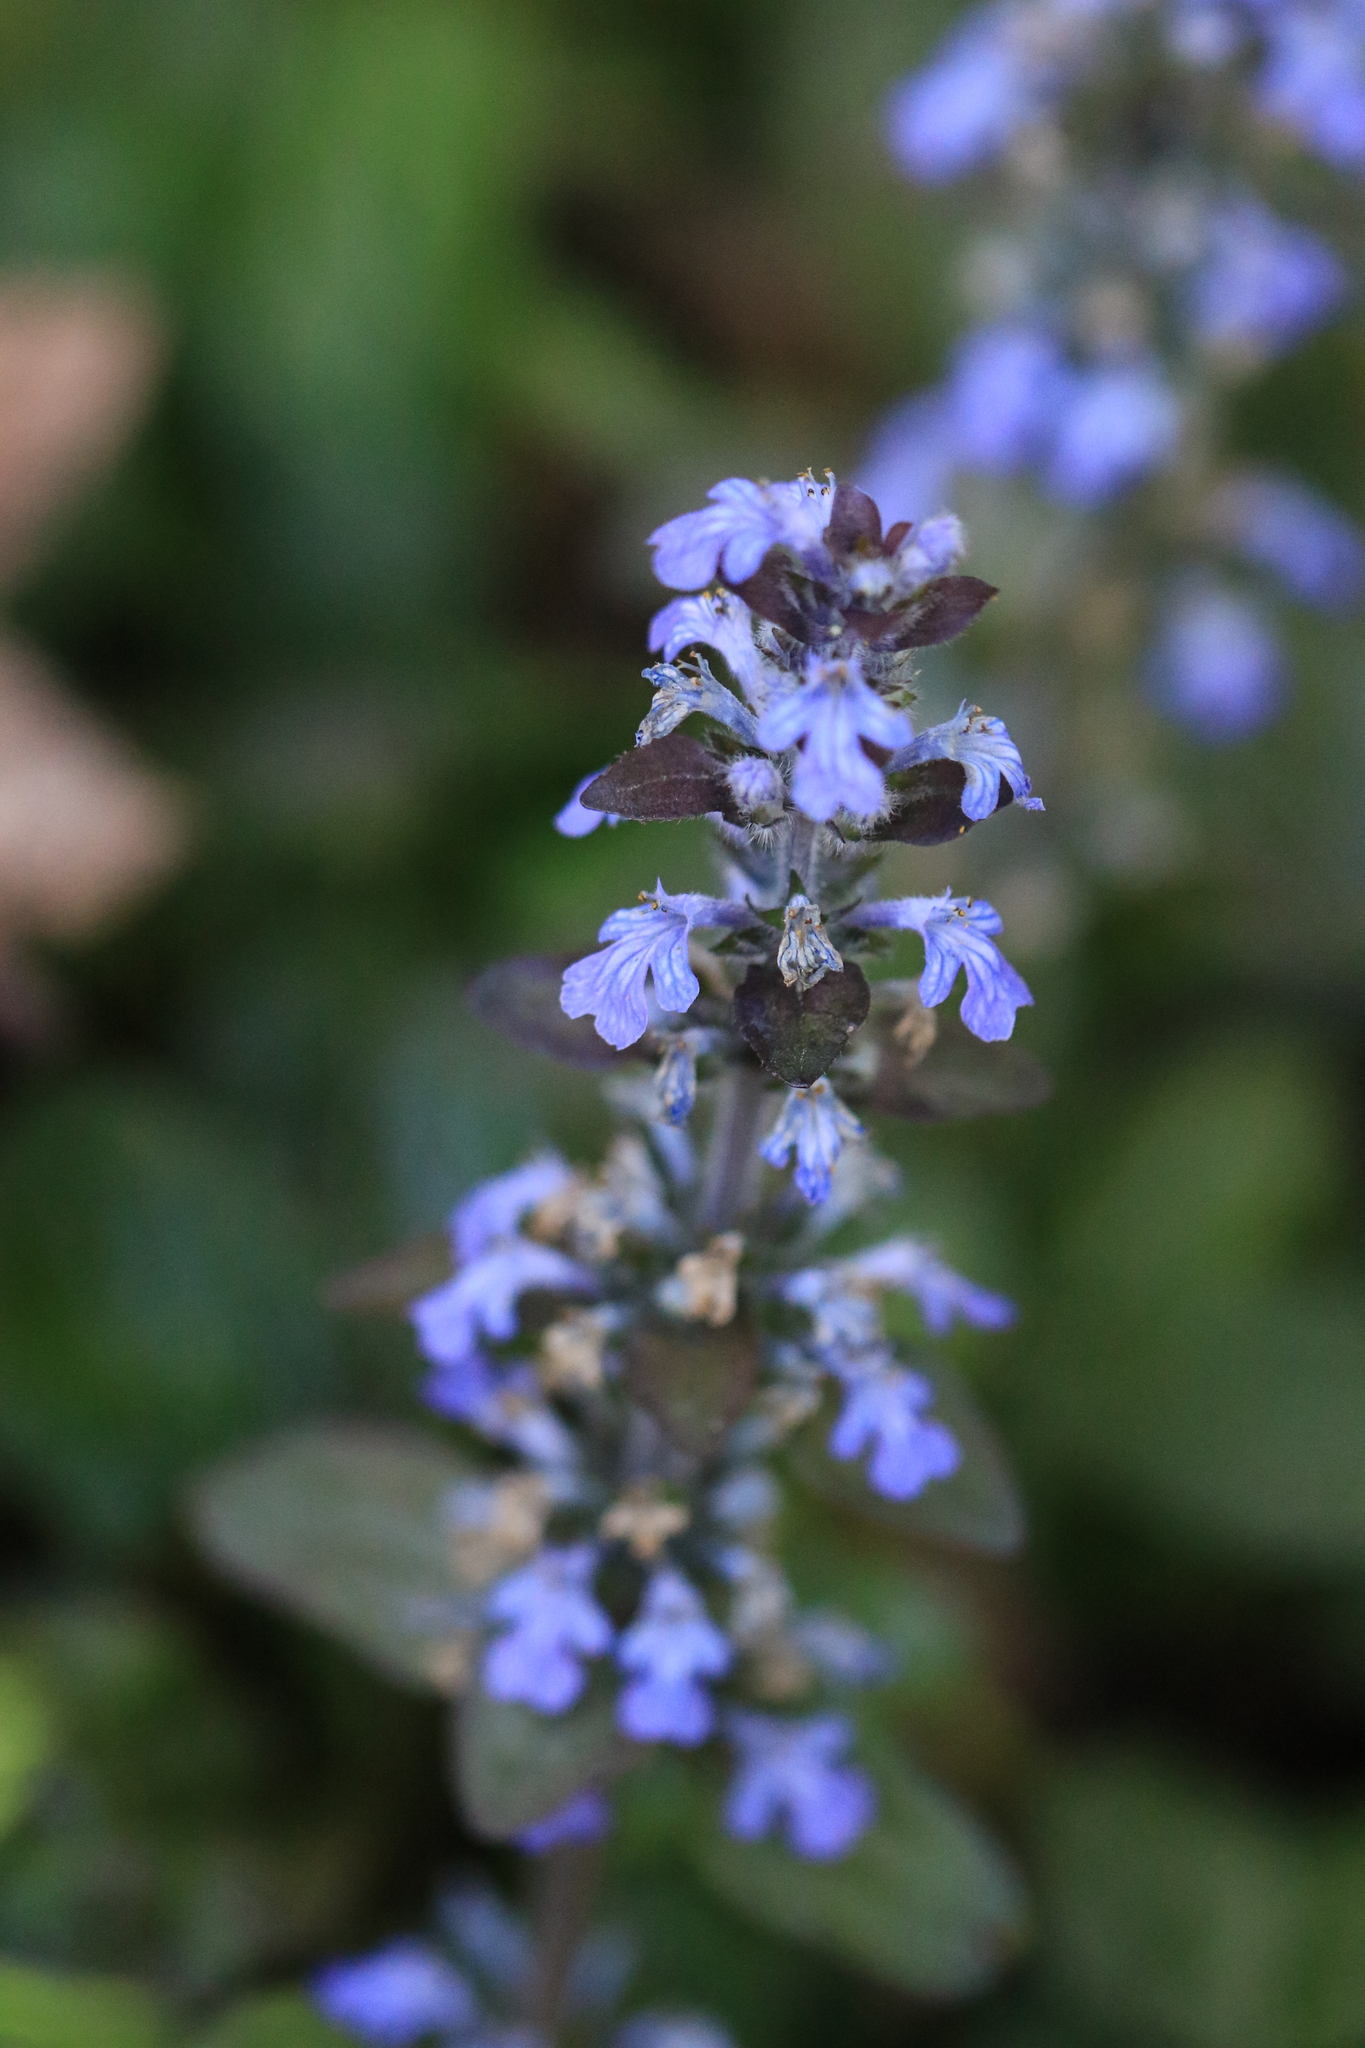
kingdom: Plantae
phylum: Tracheophyta
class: Magnoliopsida
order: Lamiales
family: Lamiaceae
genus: Ajuga
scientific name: Ajuga reptans
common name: Bugle
